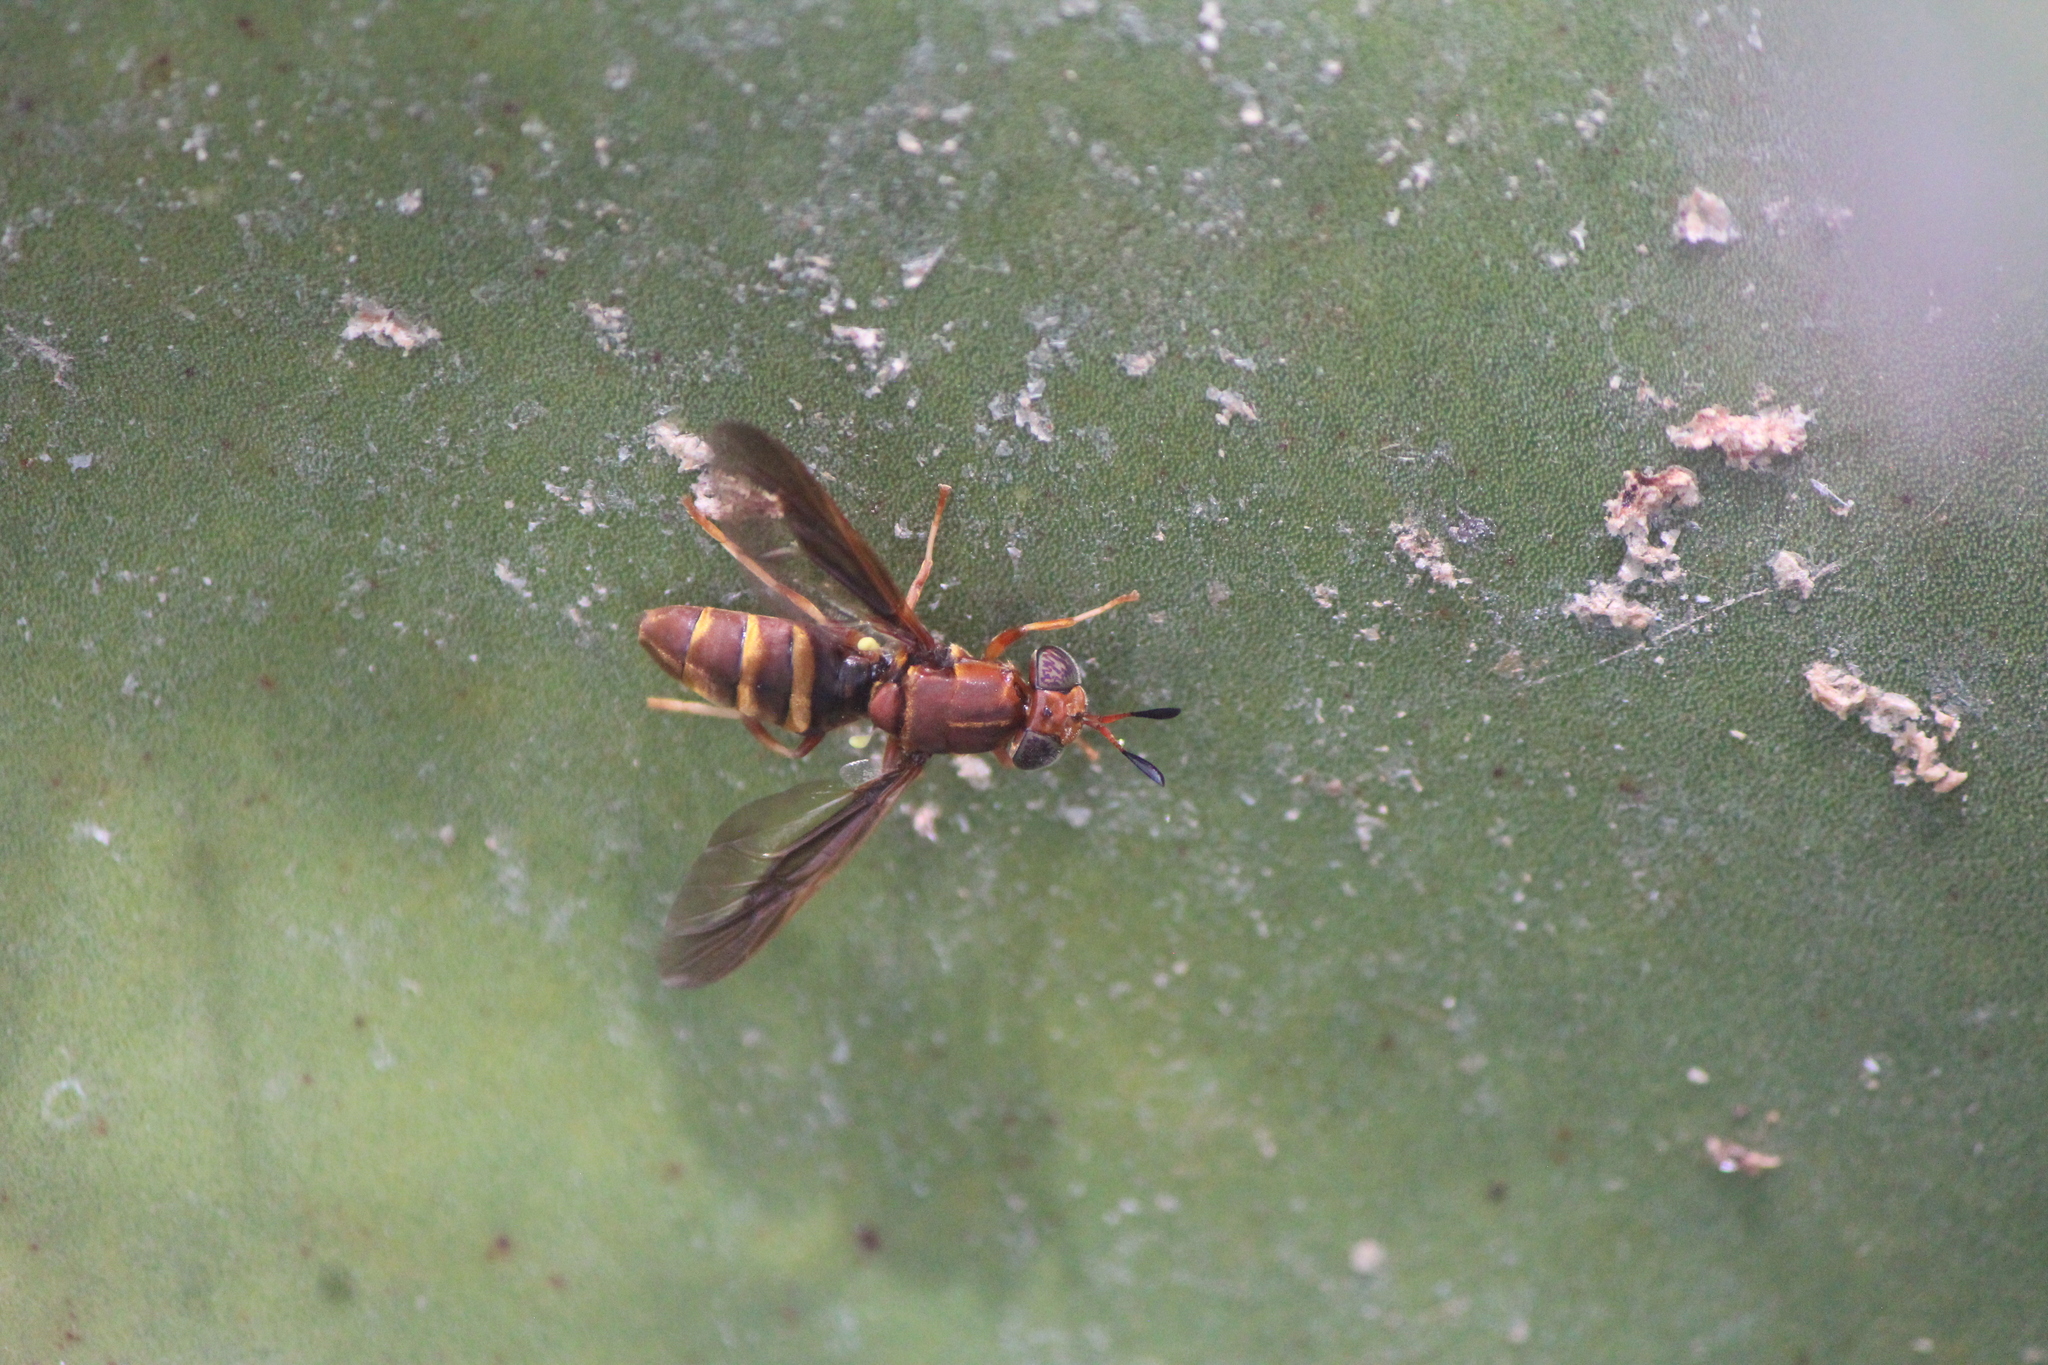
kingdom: Animalia
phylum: Arthropoda
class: Insecta
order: Diptera
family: Stratiomyidae
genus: Hermetia
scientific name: Hermetia comstocki
